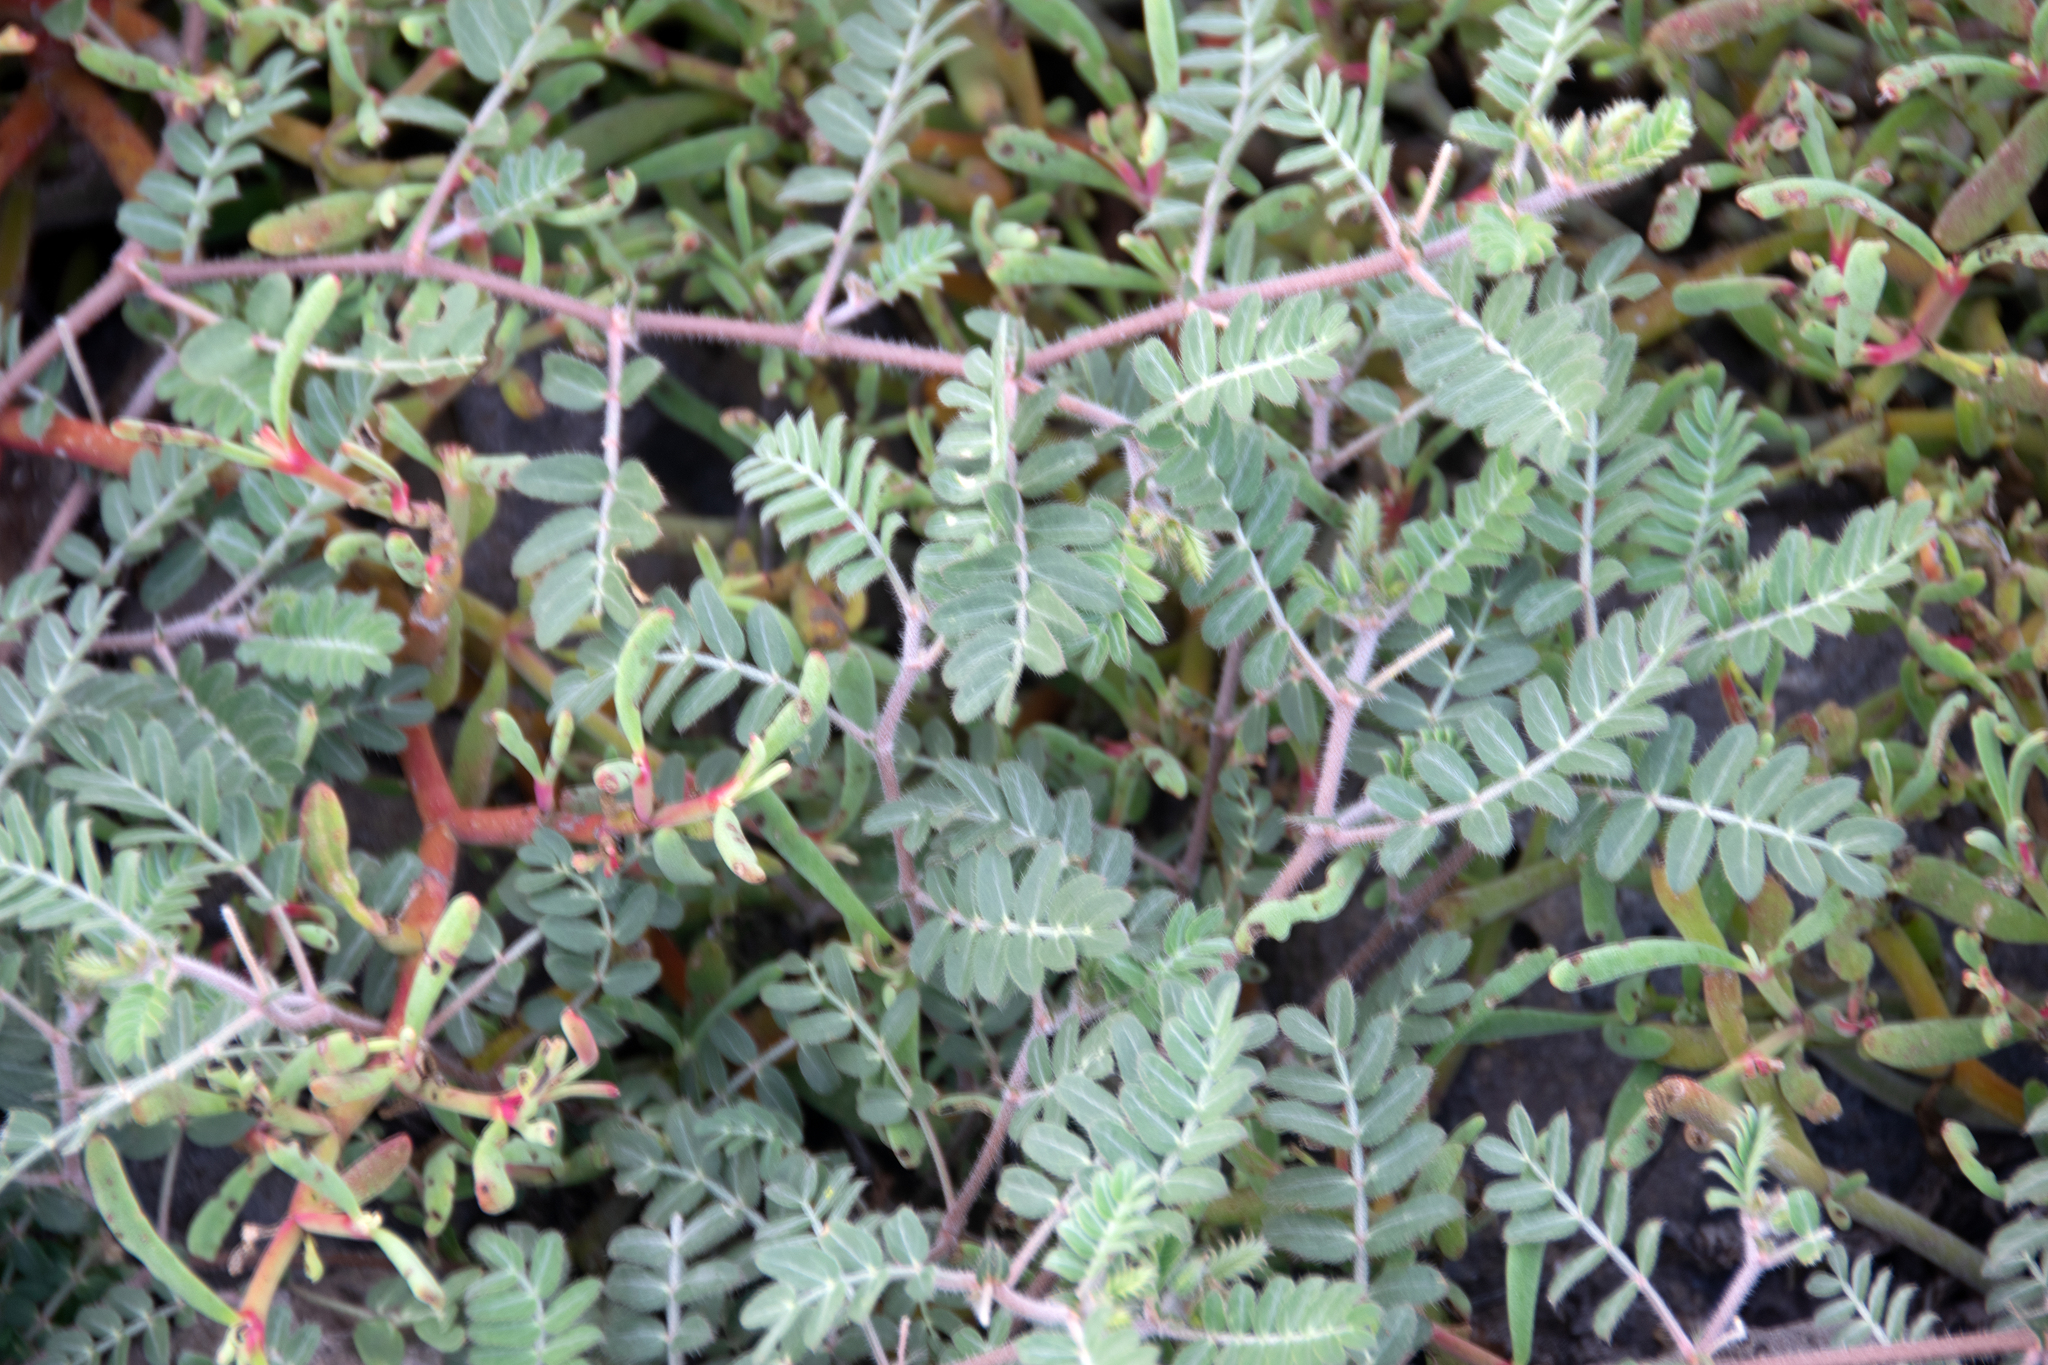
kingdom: Plantae
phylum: Tracheophyta
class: Magnoliopsida
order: Zygophyllales
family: Zygophyllaceae
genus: Tribulus
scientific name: Tribulus cistoides
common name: Jamaican feverplant
